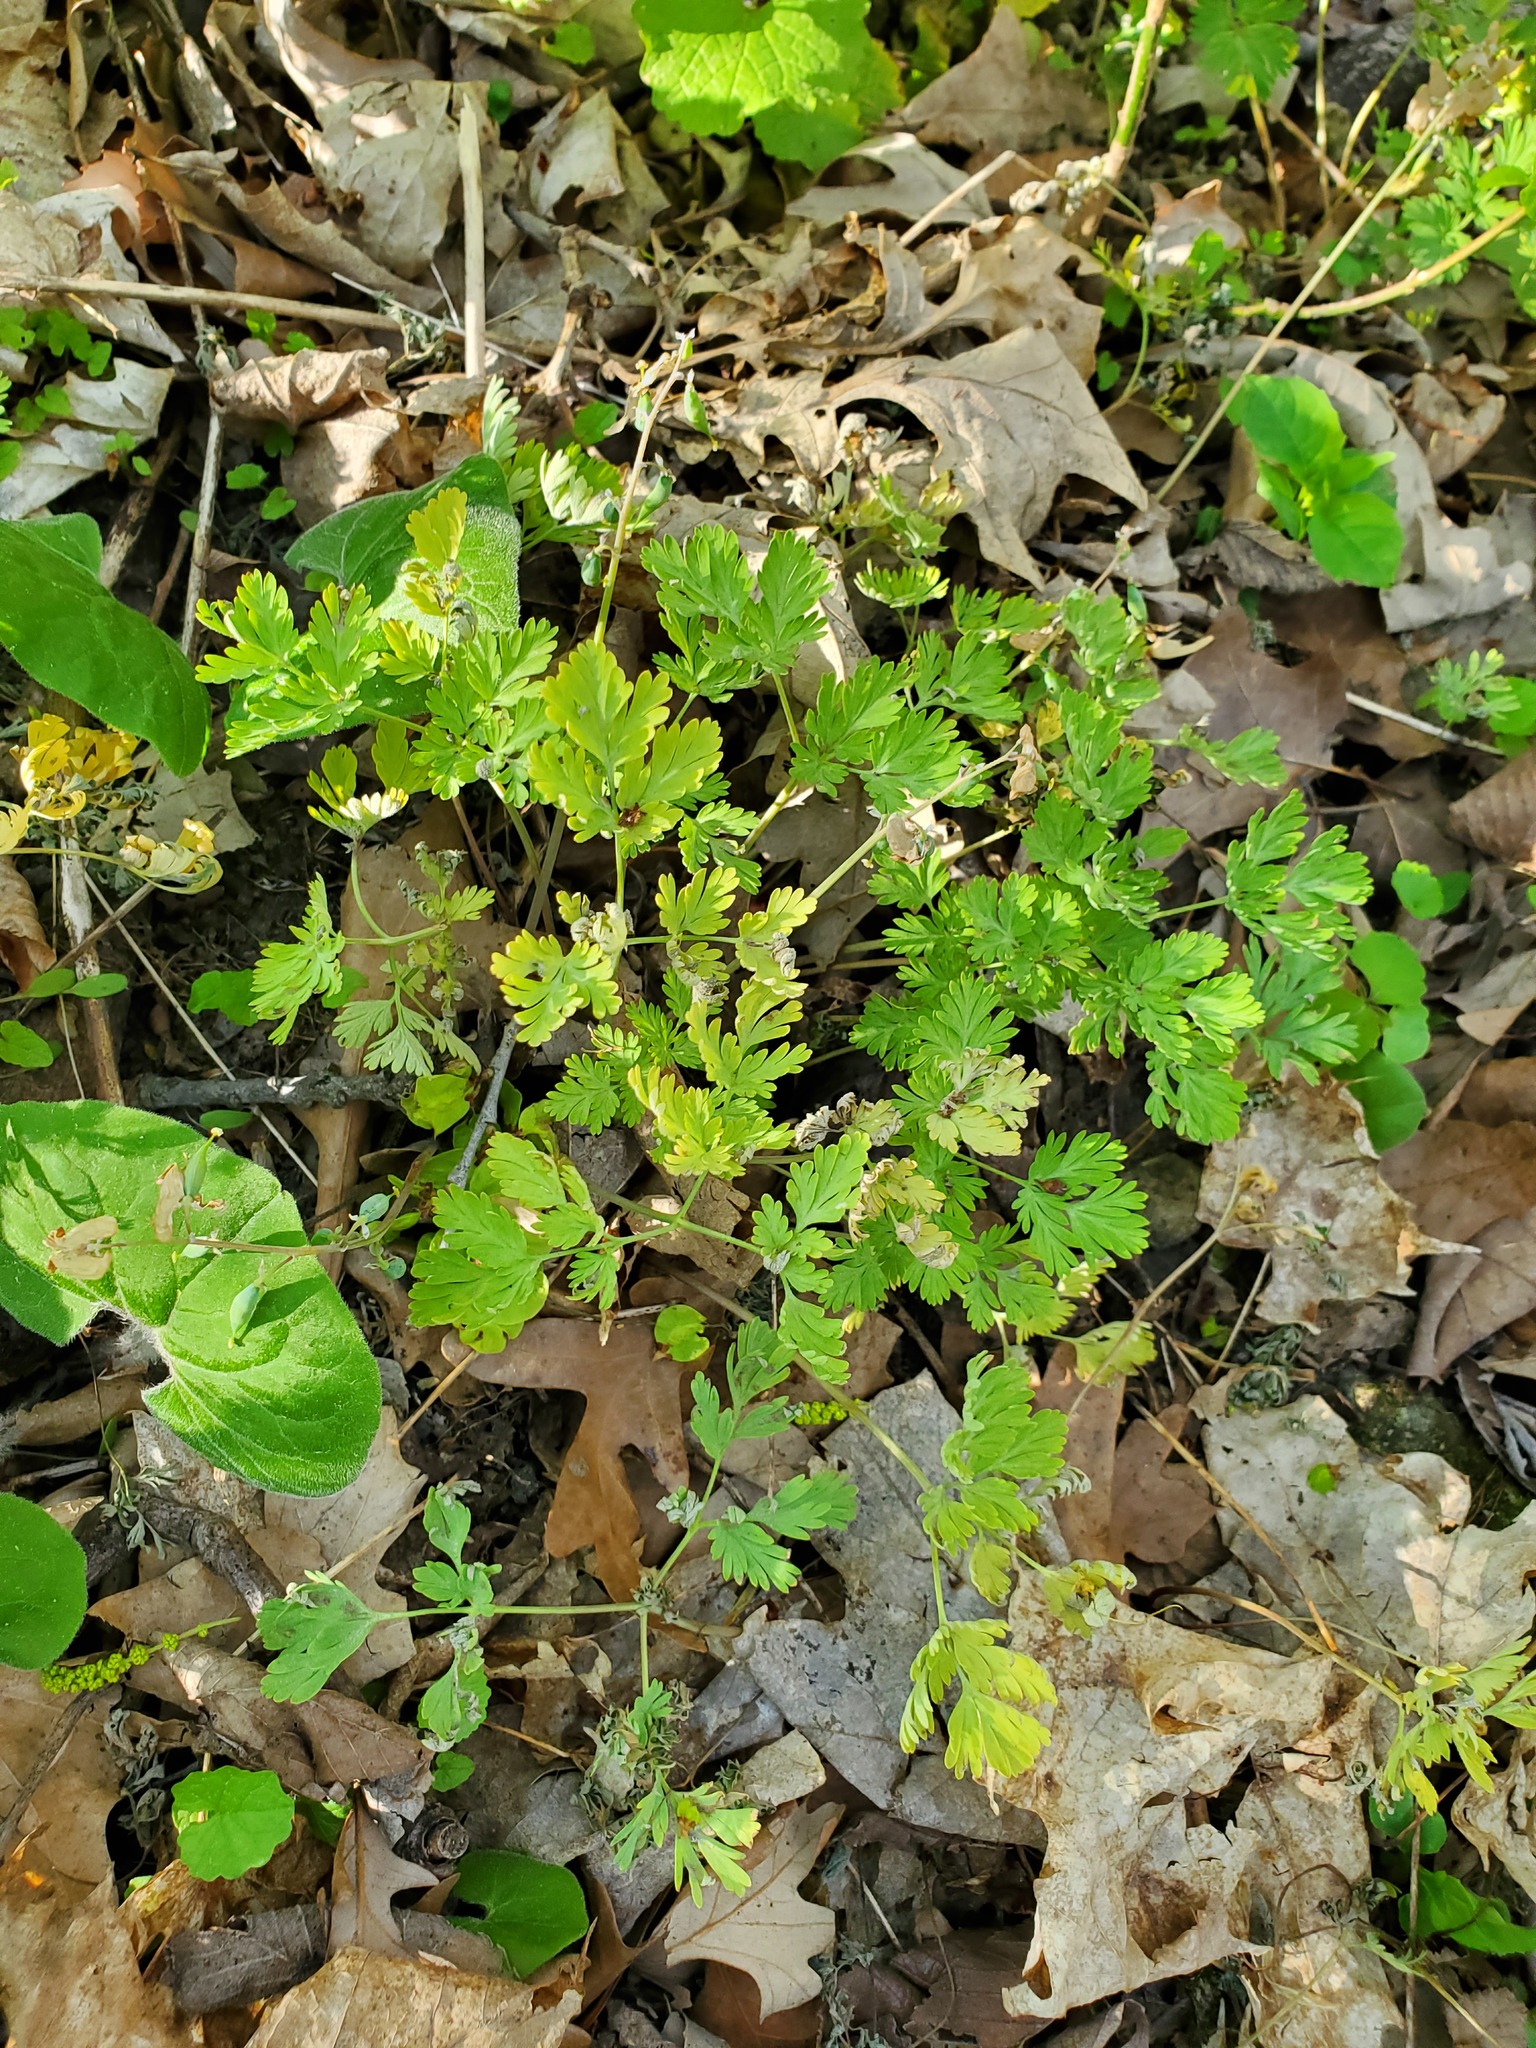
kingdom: Plantae
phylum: Tracheophyta
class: Magnoliopsida
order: Ranunculales
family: Papaveraceae
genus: Dicentra
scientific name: Dicentra cucullaria
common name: Dutchman's breeches
